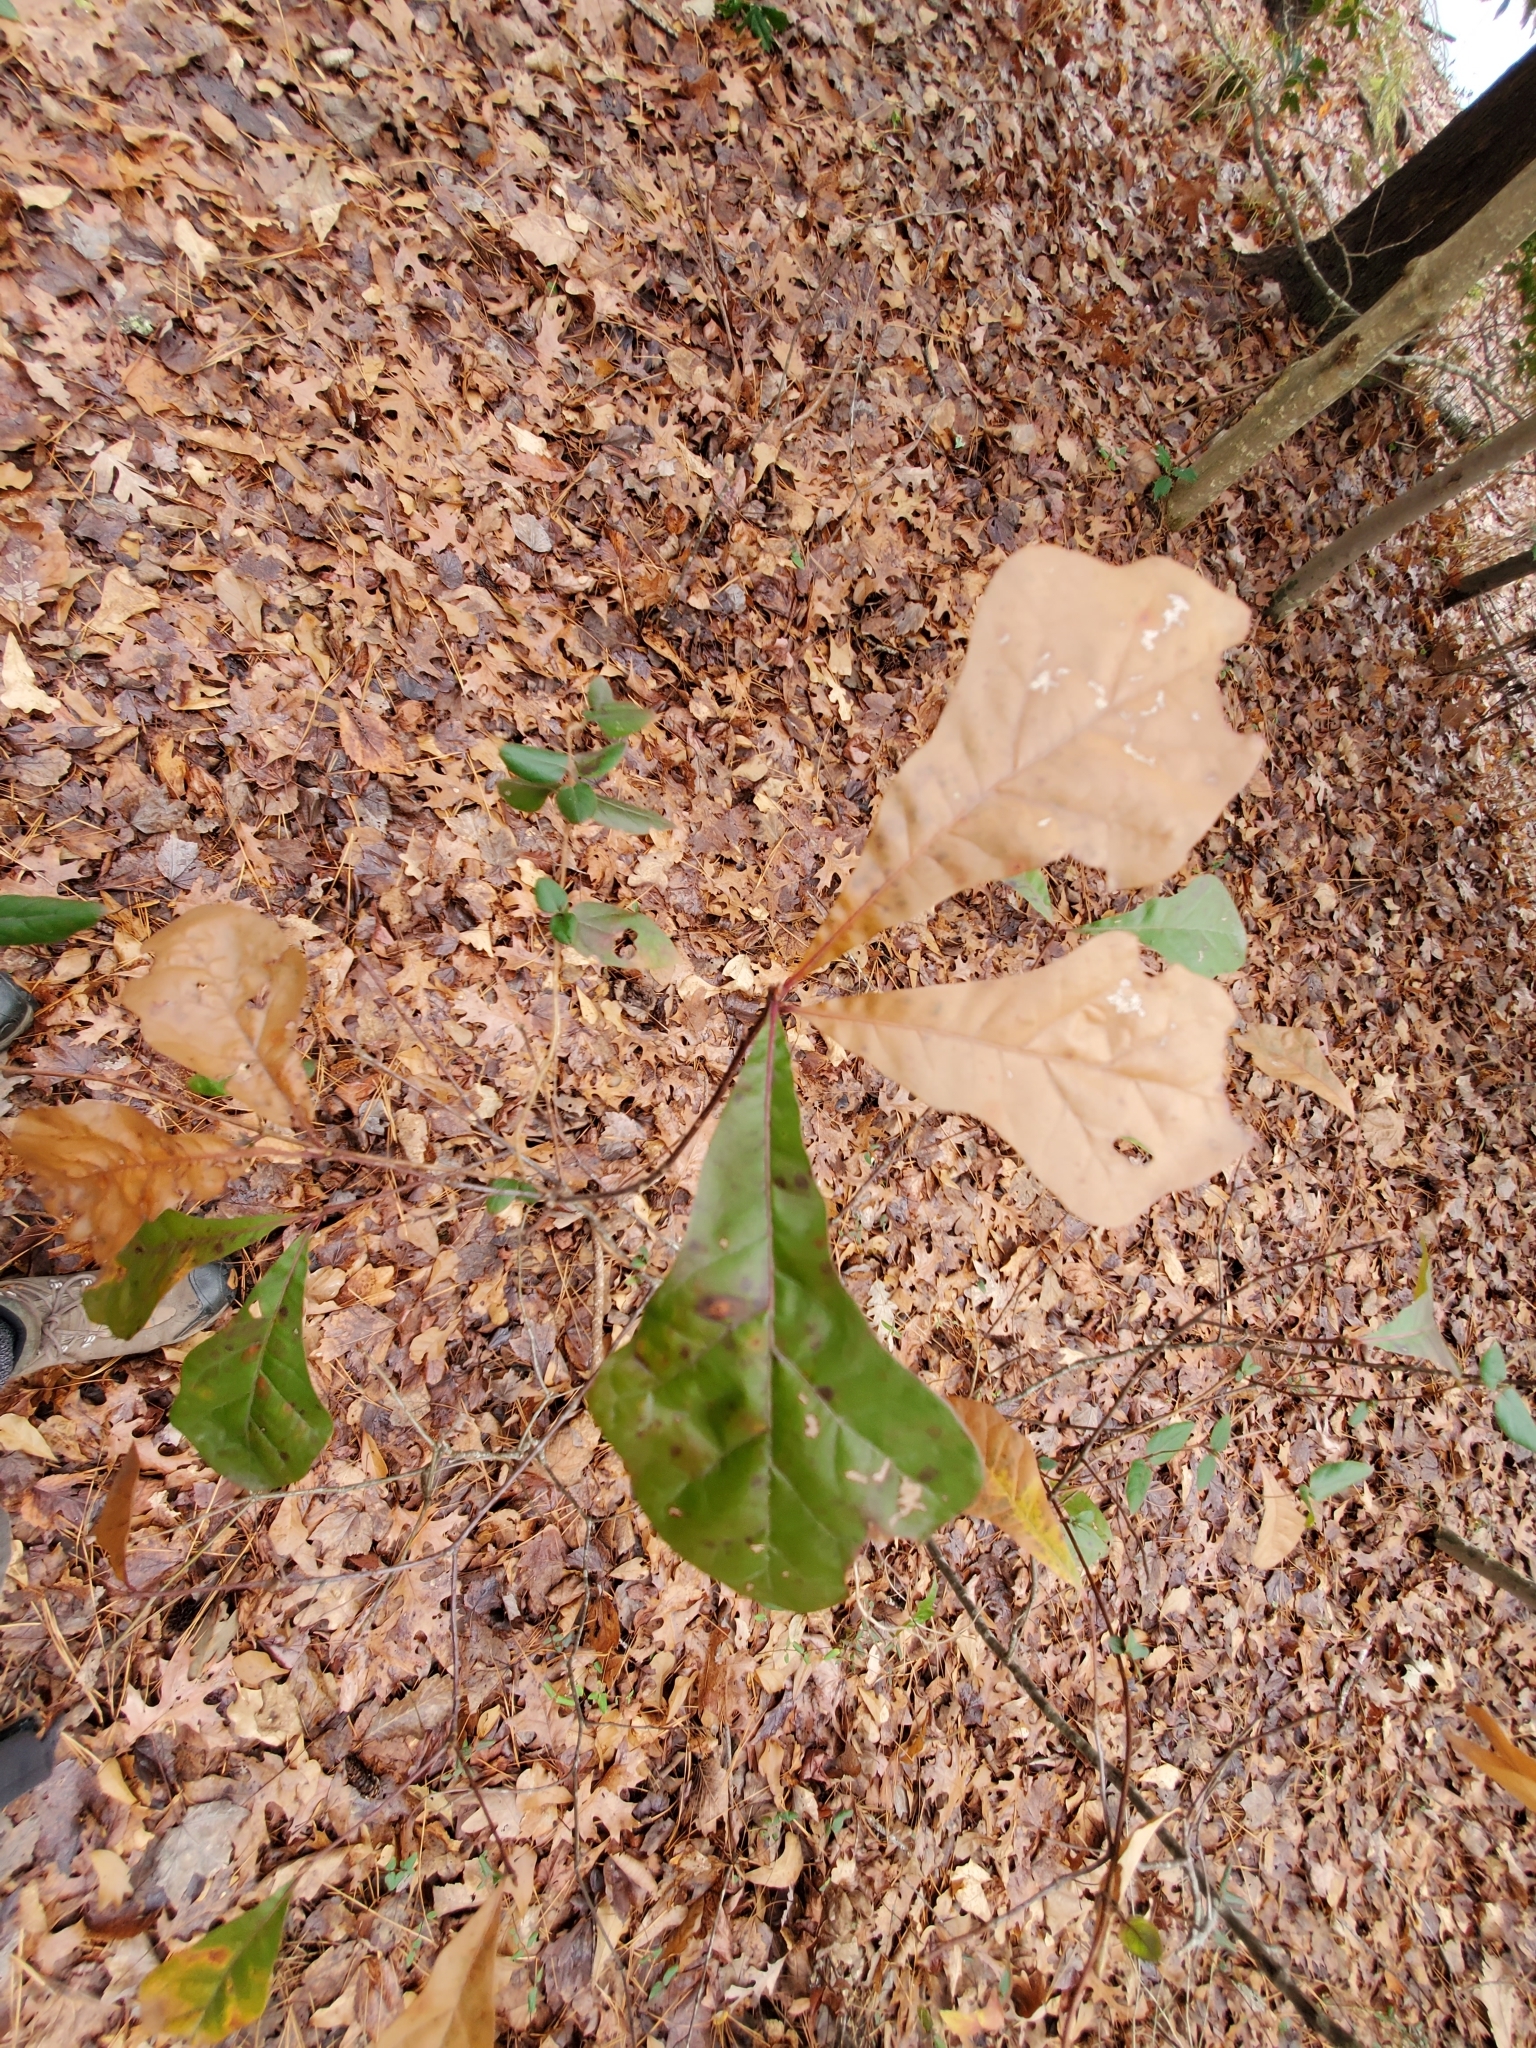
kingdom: Plantae
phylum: Tracheophyta
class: Magnoliopsida
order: Fagales
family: Fagaceae
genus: Quercus
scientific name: Quercus nigra
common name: Water oak
